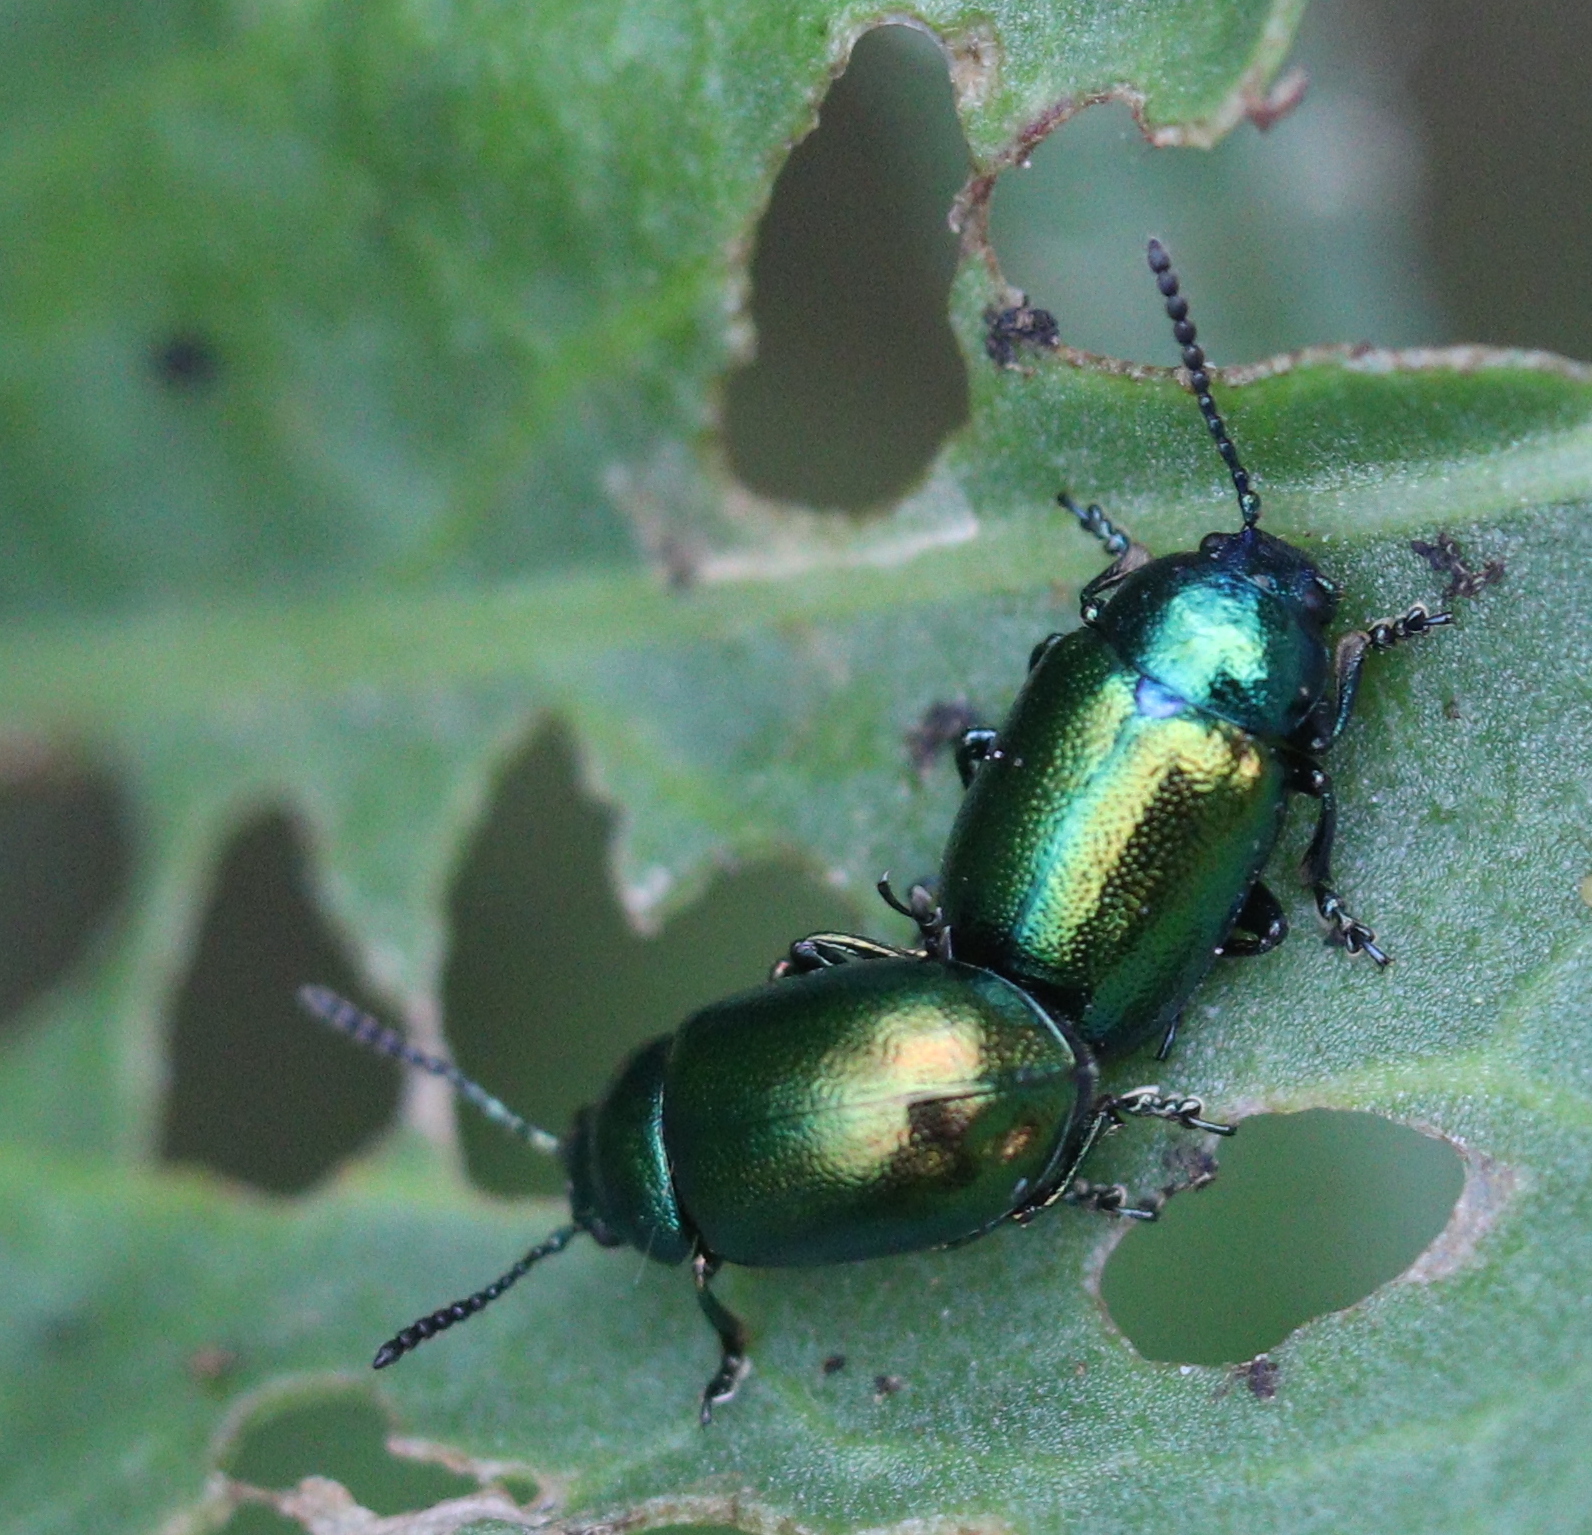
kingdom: Animalia
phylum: Arthropoda
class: Insecta
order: Coleoptera
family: Chrysomelidae
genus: Gastrophysa
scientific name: Gastrophysa viridula
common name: Green dock beetle
